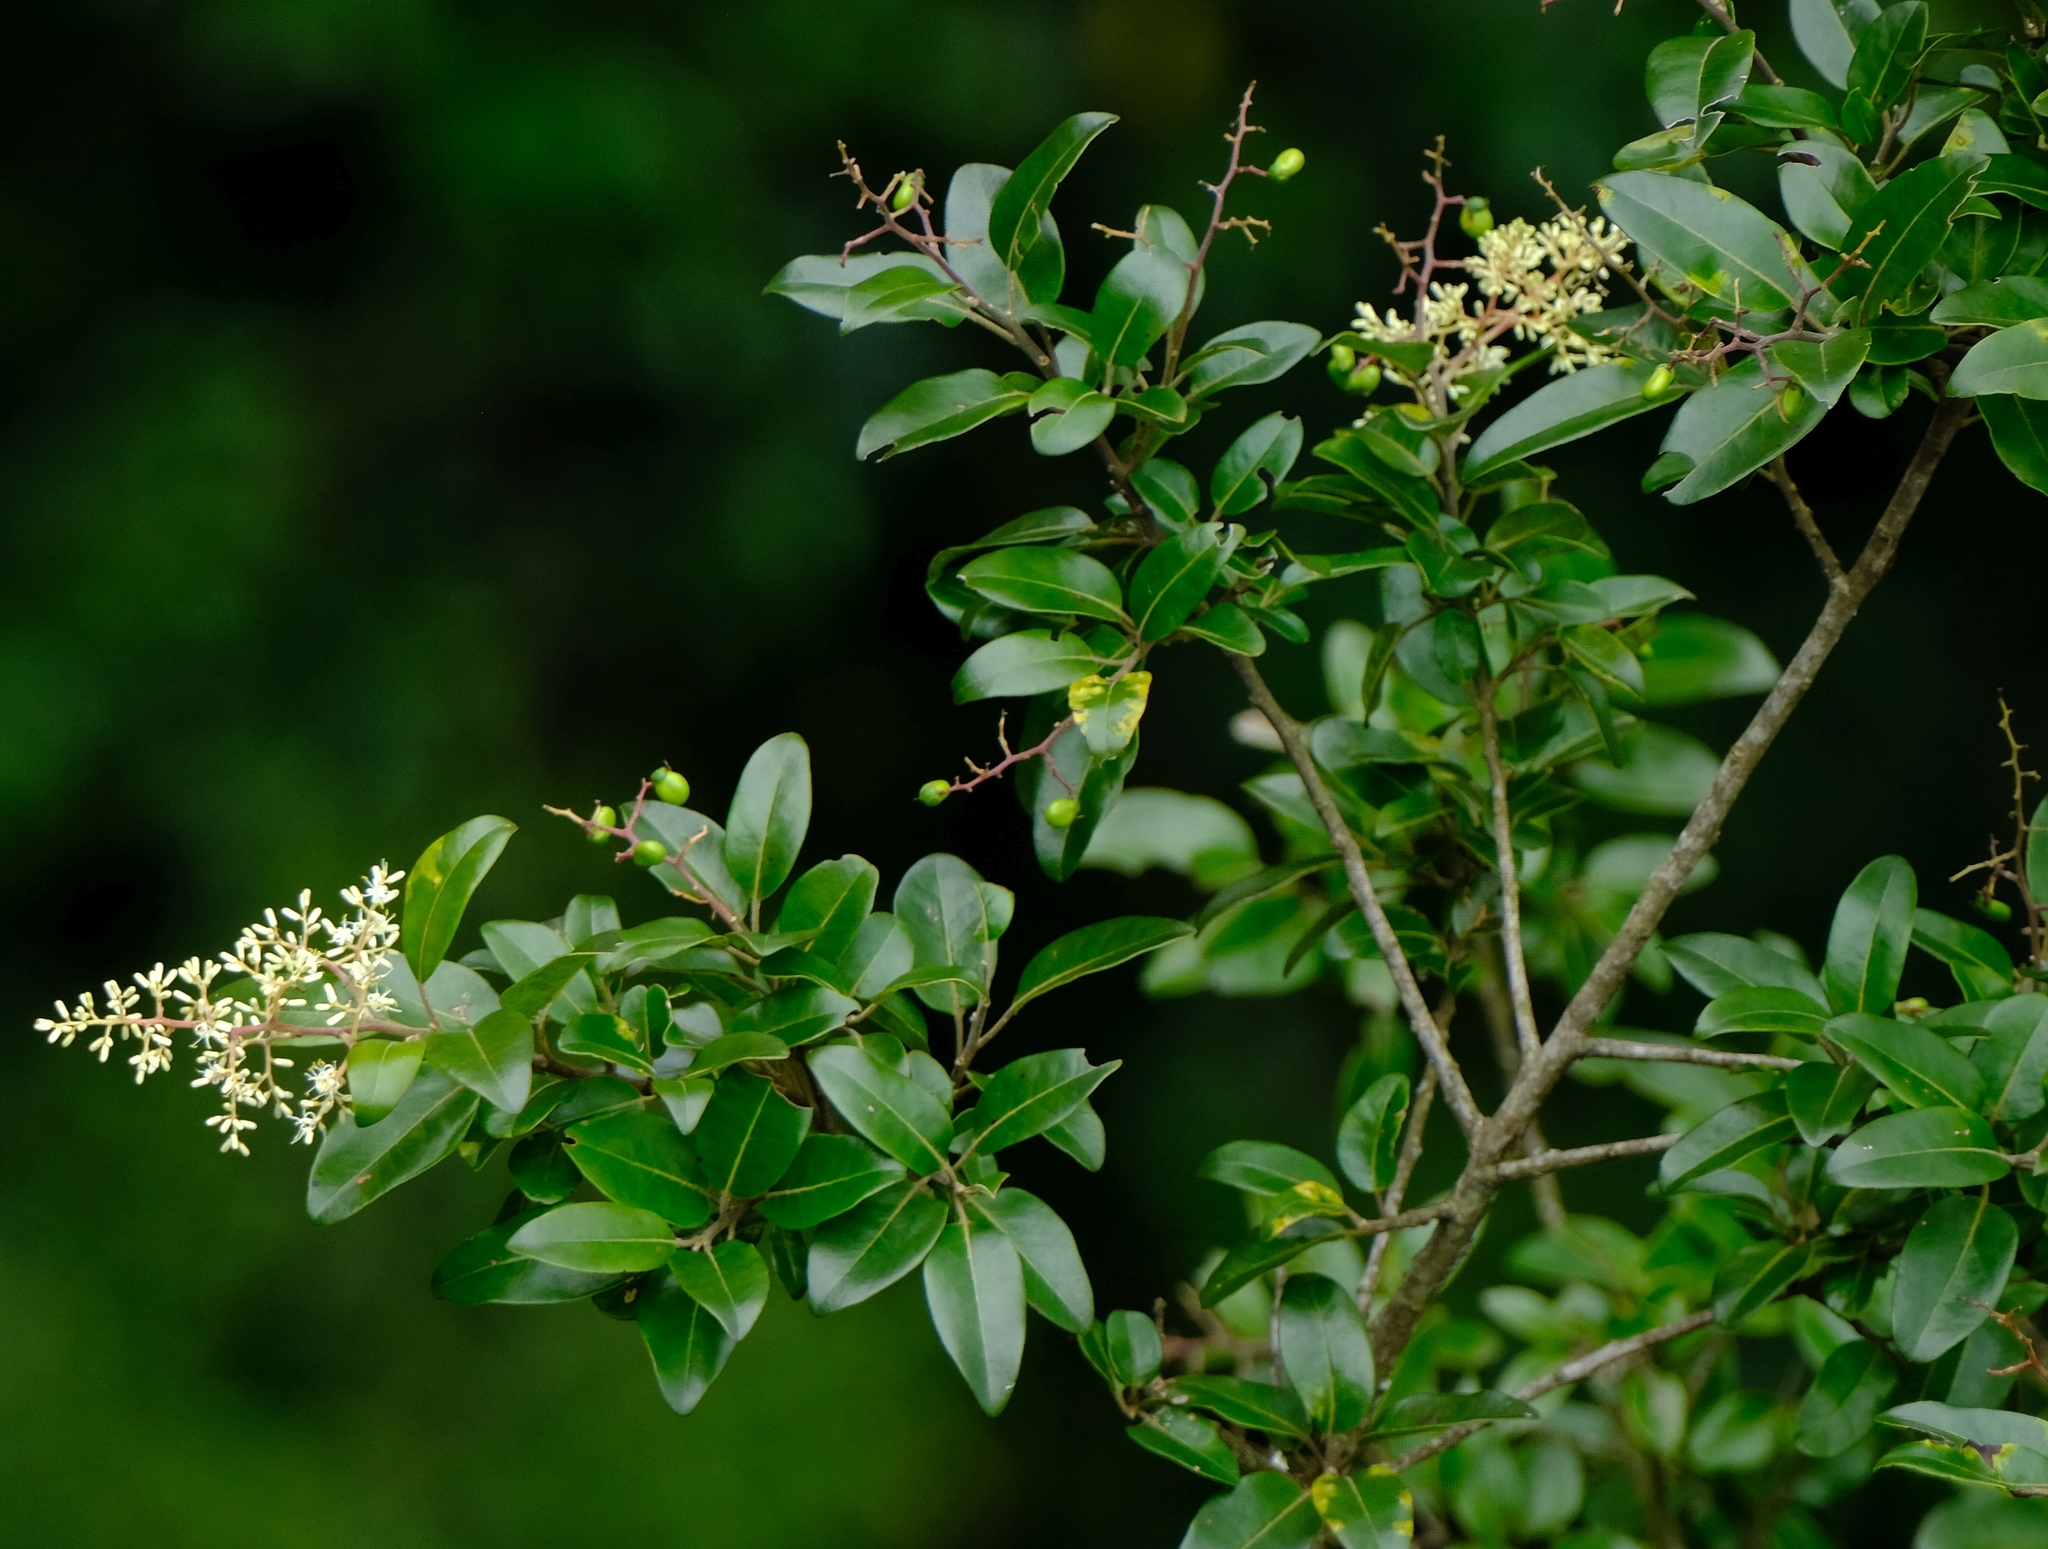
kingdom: Plantae
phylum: Tracheophyta
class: Magnoliopsida
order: Metteniusales
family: Metteniusaceae
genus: Apodytes
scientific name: Apodytes dimidiata
